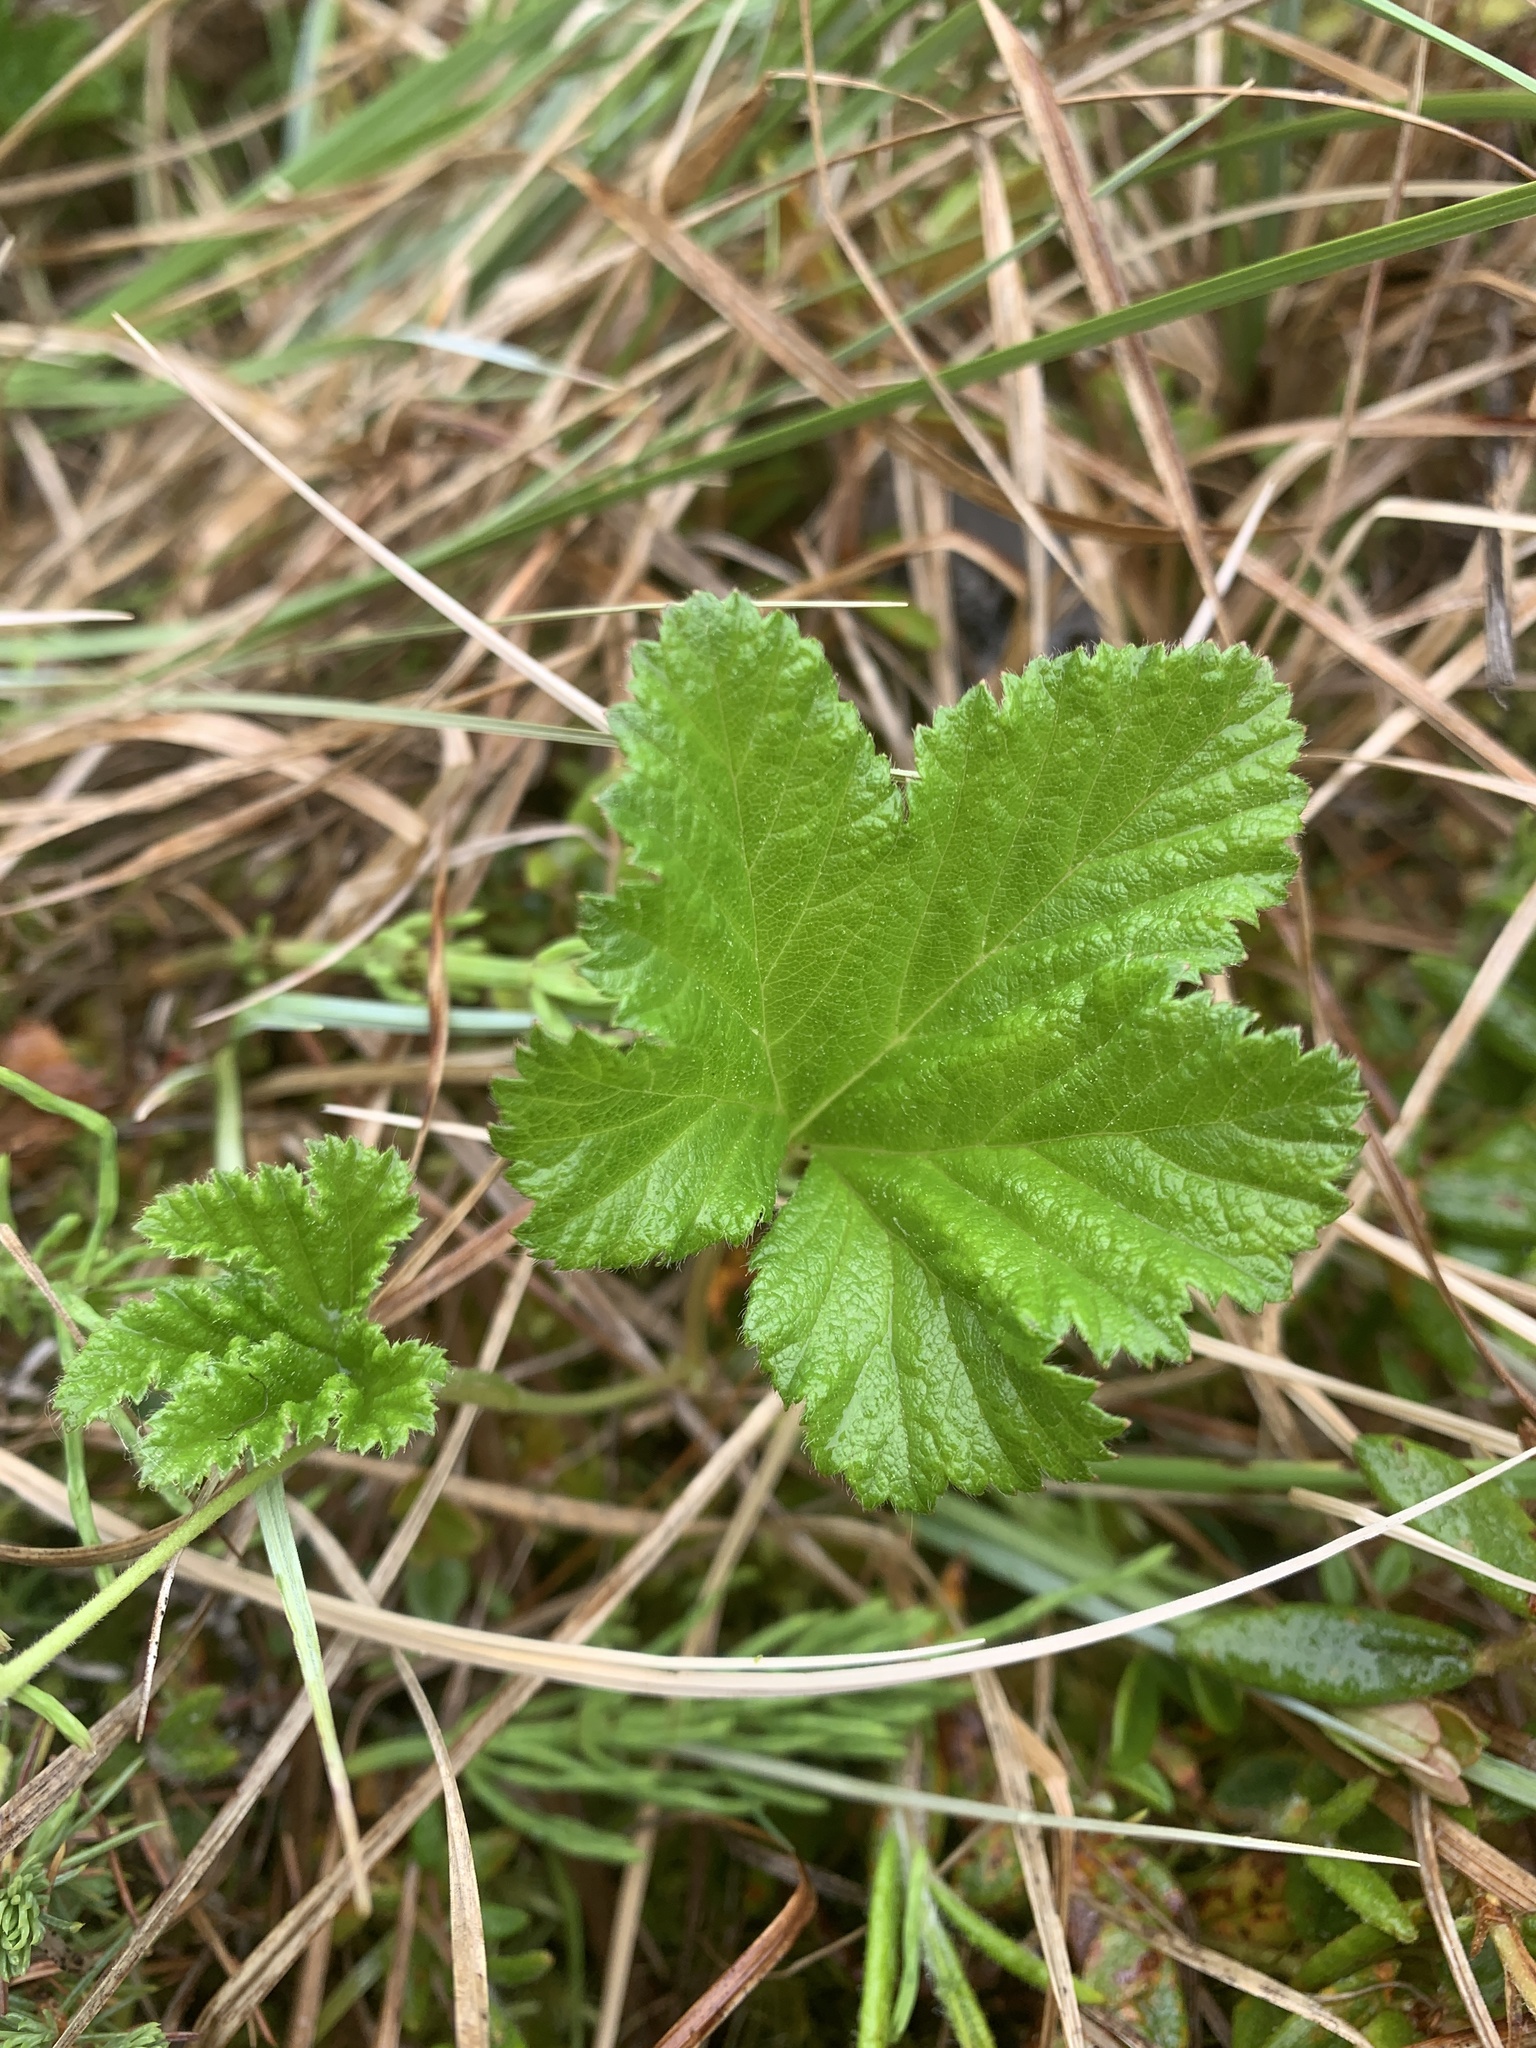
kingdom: Plantae
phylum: Tracheophyta
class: Magnoliopsida
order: Rosales
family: Rosaceae
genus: Rubus
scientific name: Rubus chamaemorus
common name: Cloudberry
